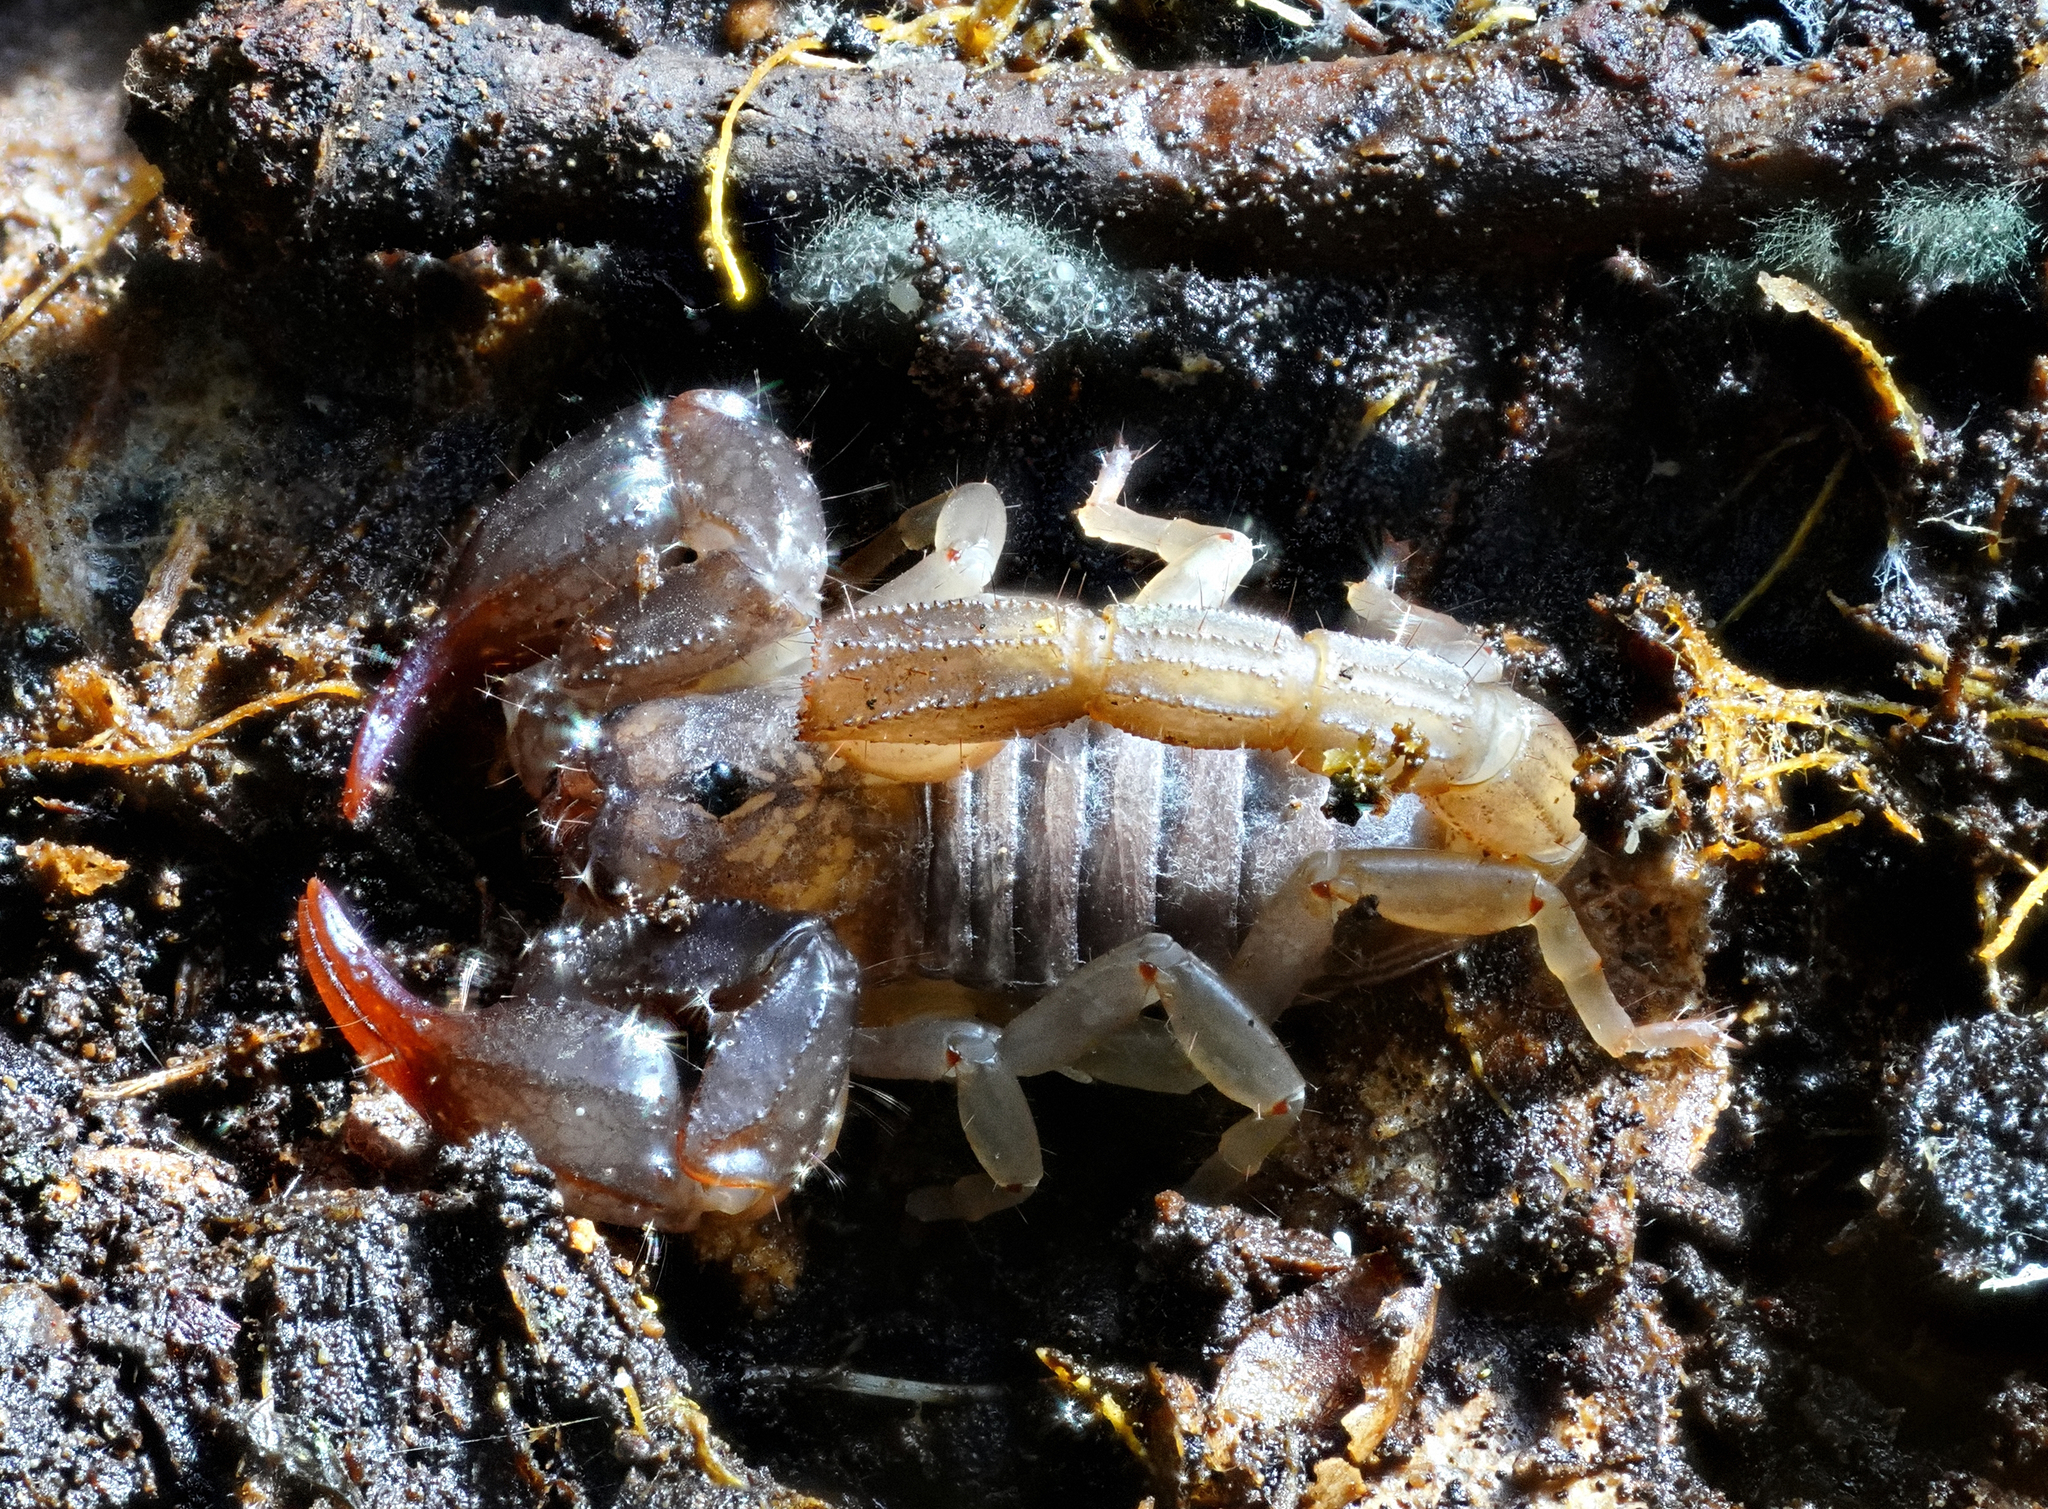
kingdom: Animalia
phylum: Arthropoda
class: Arachnida
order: Scorpiones
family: Chactidae
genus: Uroctonus
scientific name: Uroctonus mordax
